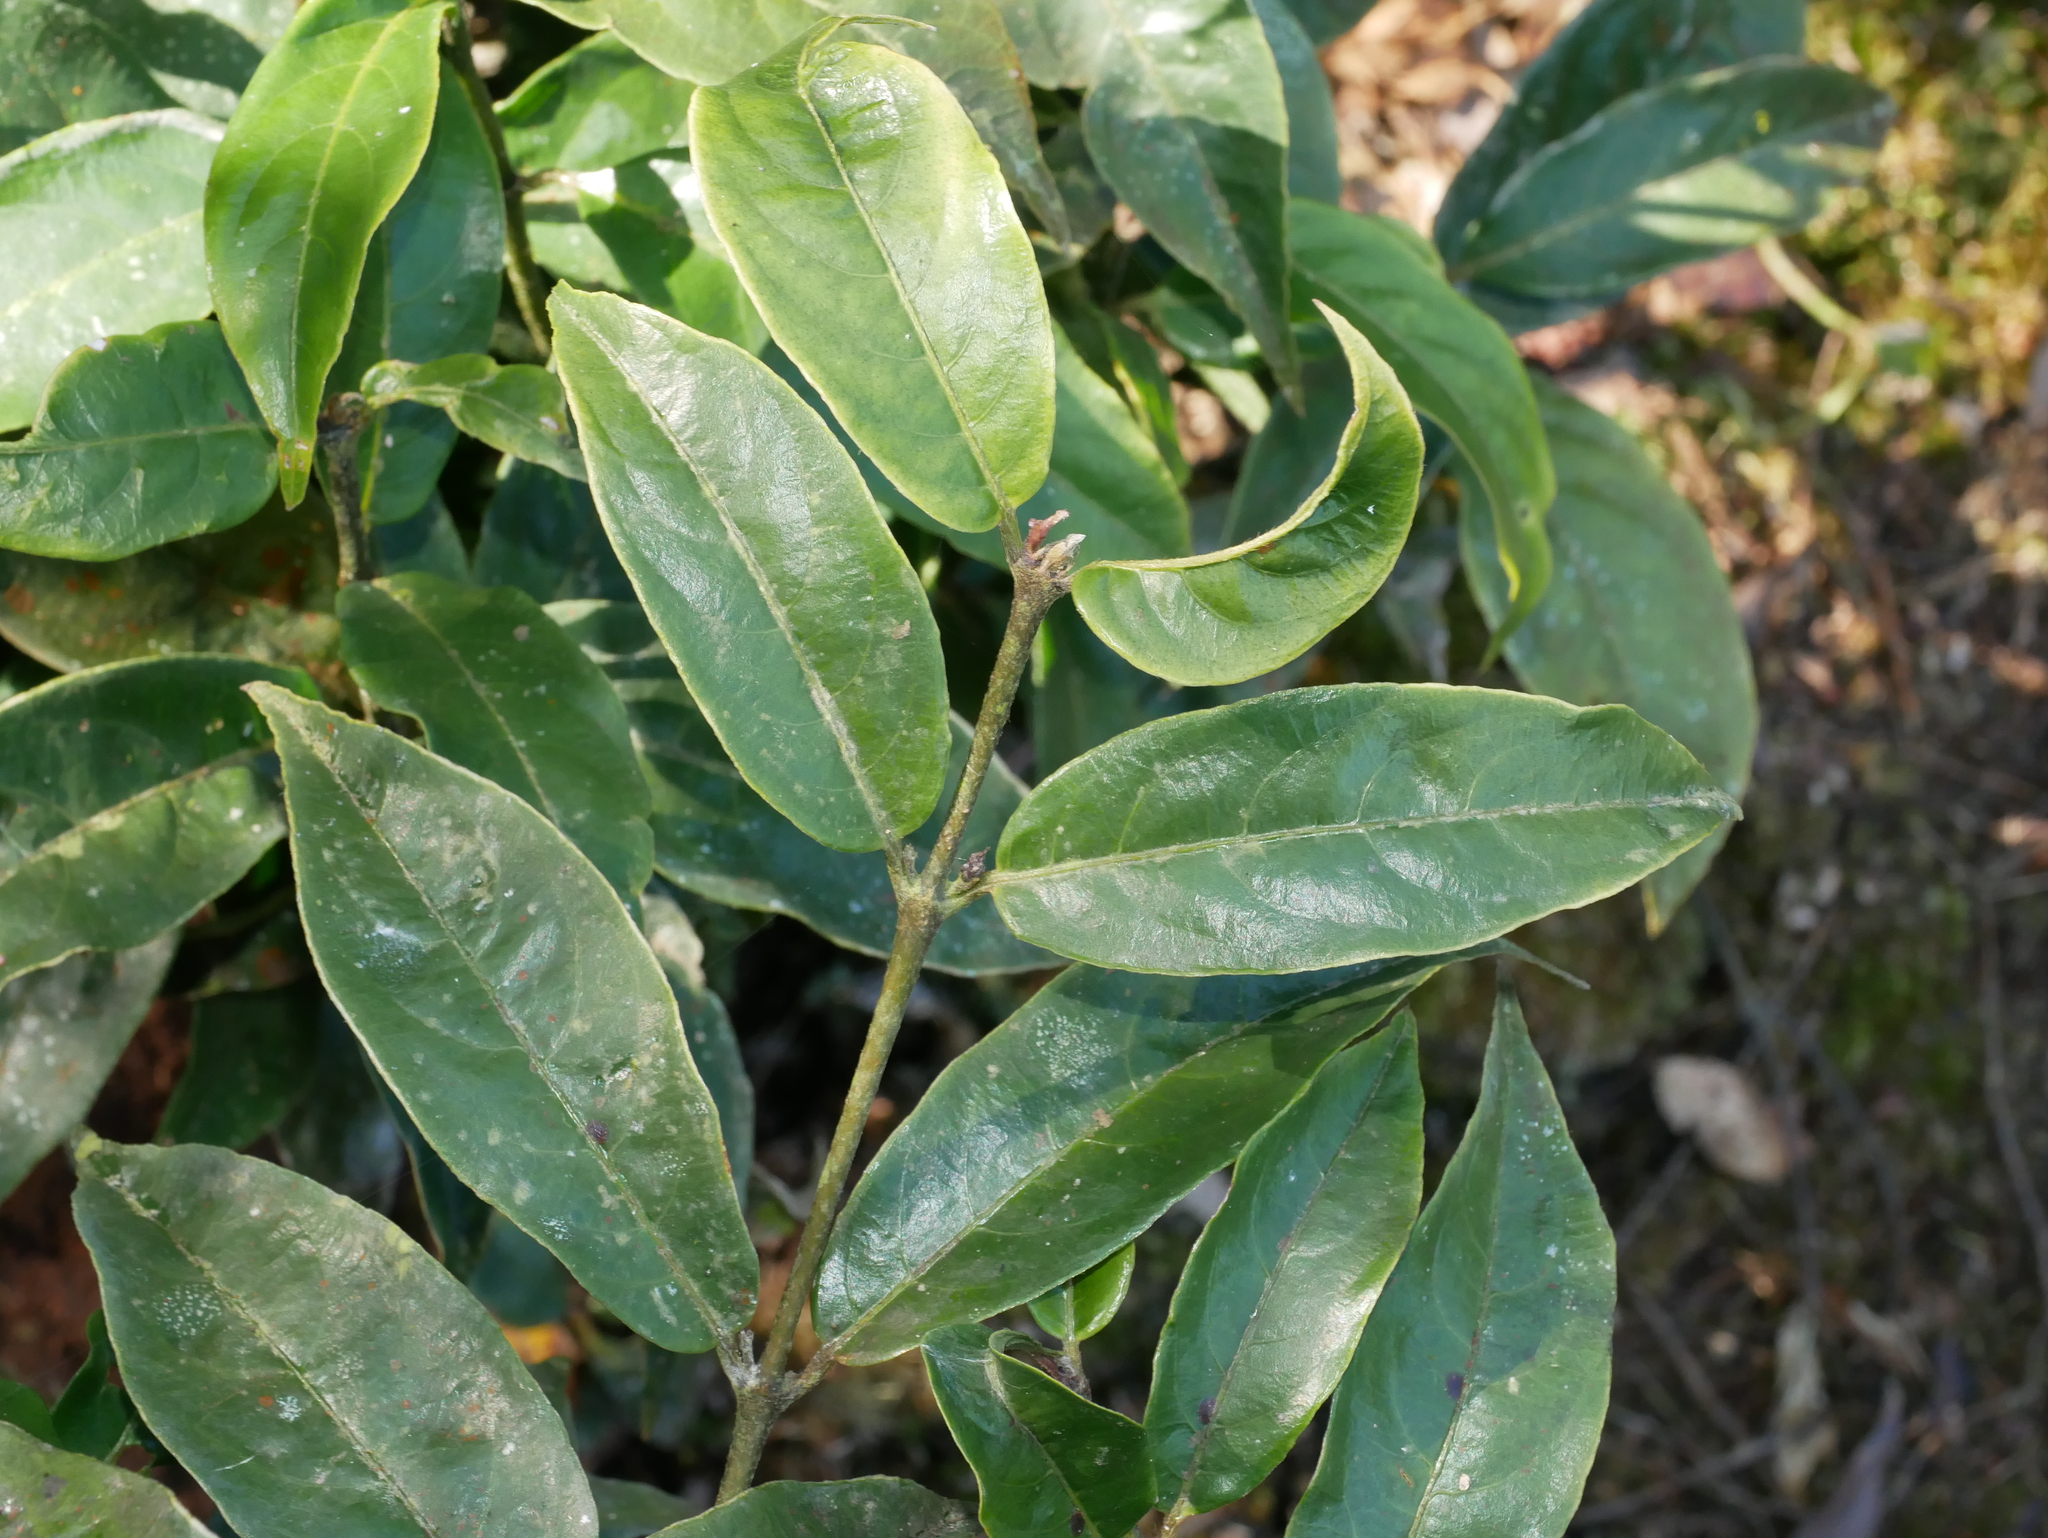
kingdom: Plantae
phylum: Tracheophyta
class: Magnoliopsida
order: Gentianales
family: Rubiaceae
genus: Lasianthus
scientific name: Lasianthus japonicus
